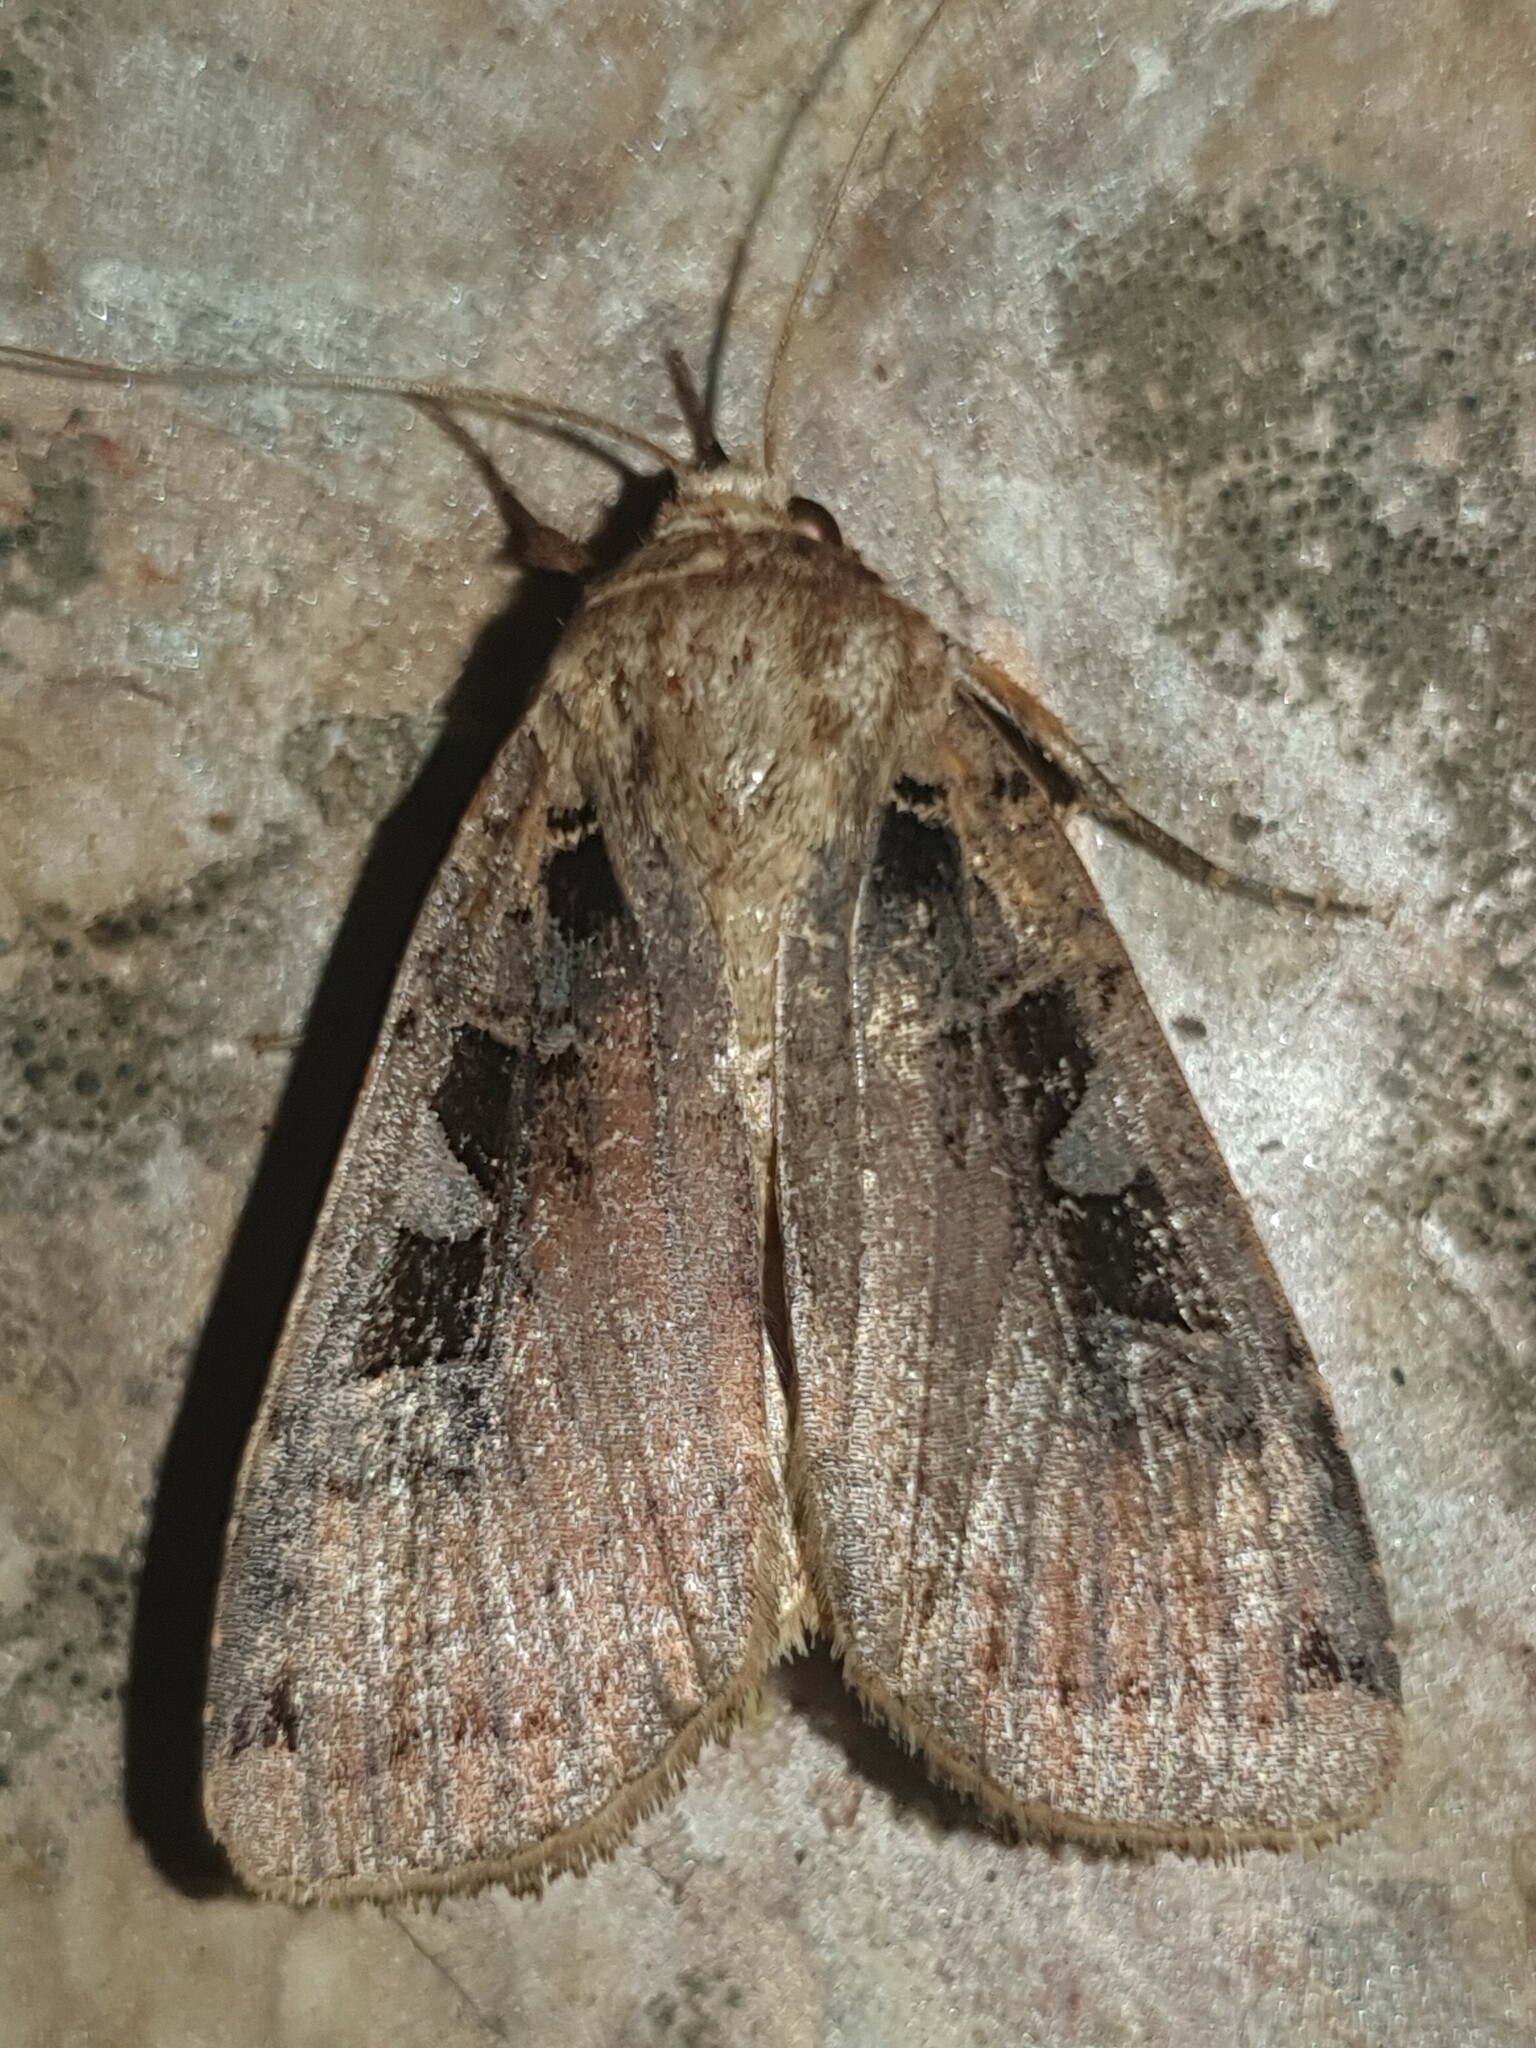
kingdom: Animalia
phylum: Arthropoda
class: Insecta
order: Lepidoptera
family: Noctuidae
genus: Xestia
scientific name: Xestia ditrapezium
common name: Triple-spotted clay
